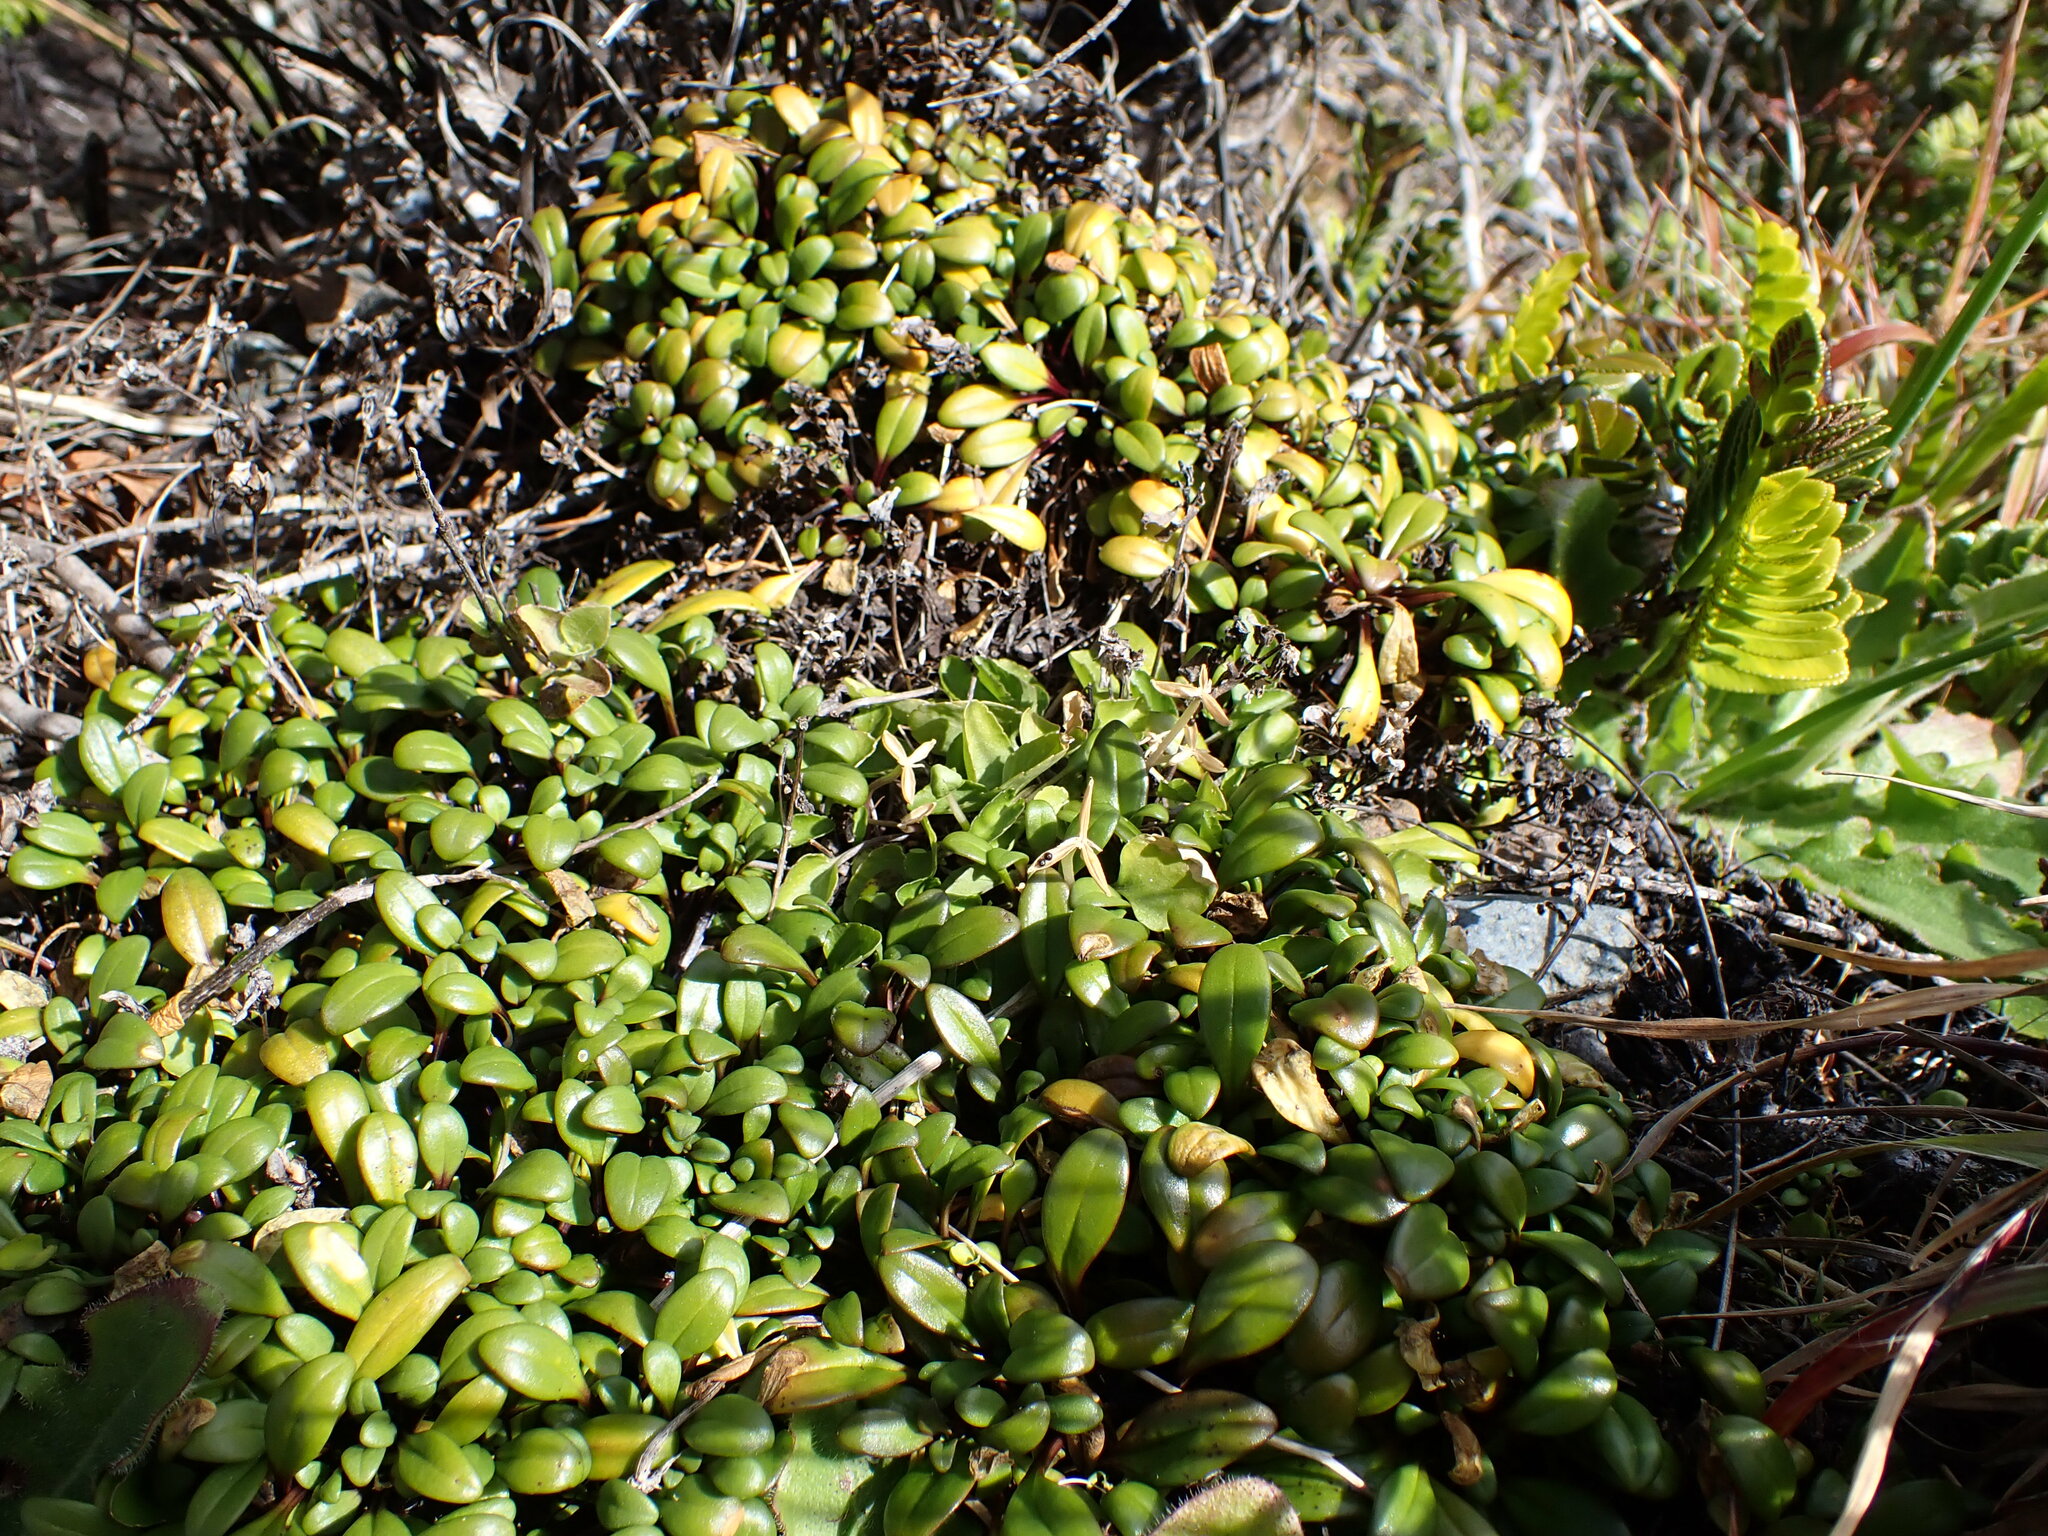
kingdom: Plantae
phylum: Tracheophyta
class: Magnoliopsida
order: Gentianales
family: Gentianaceae
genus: Gentianella
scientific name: Gentianella saxosa
